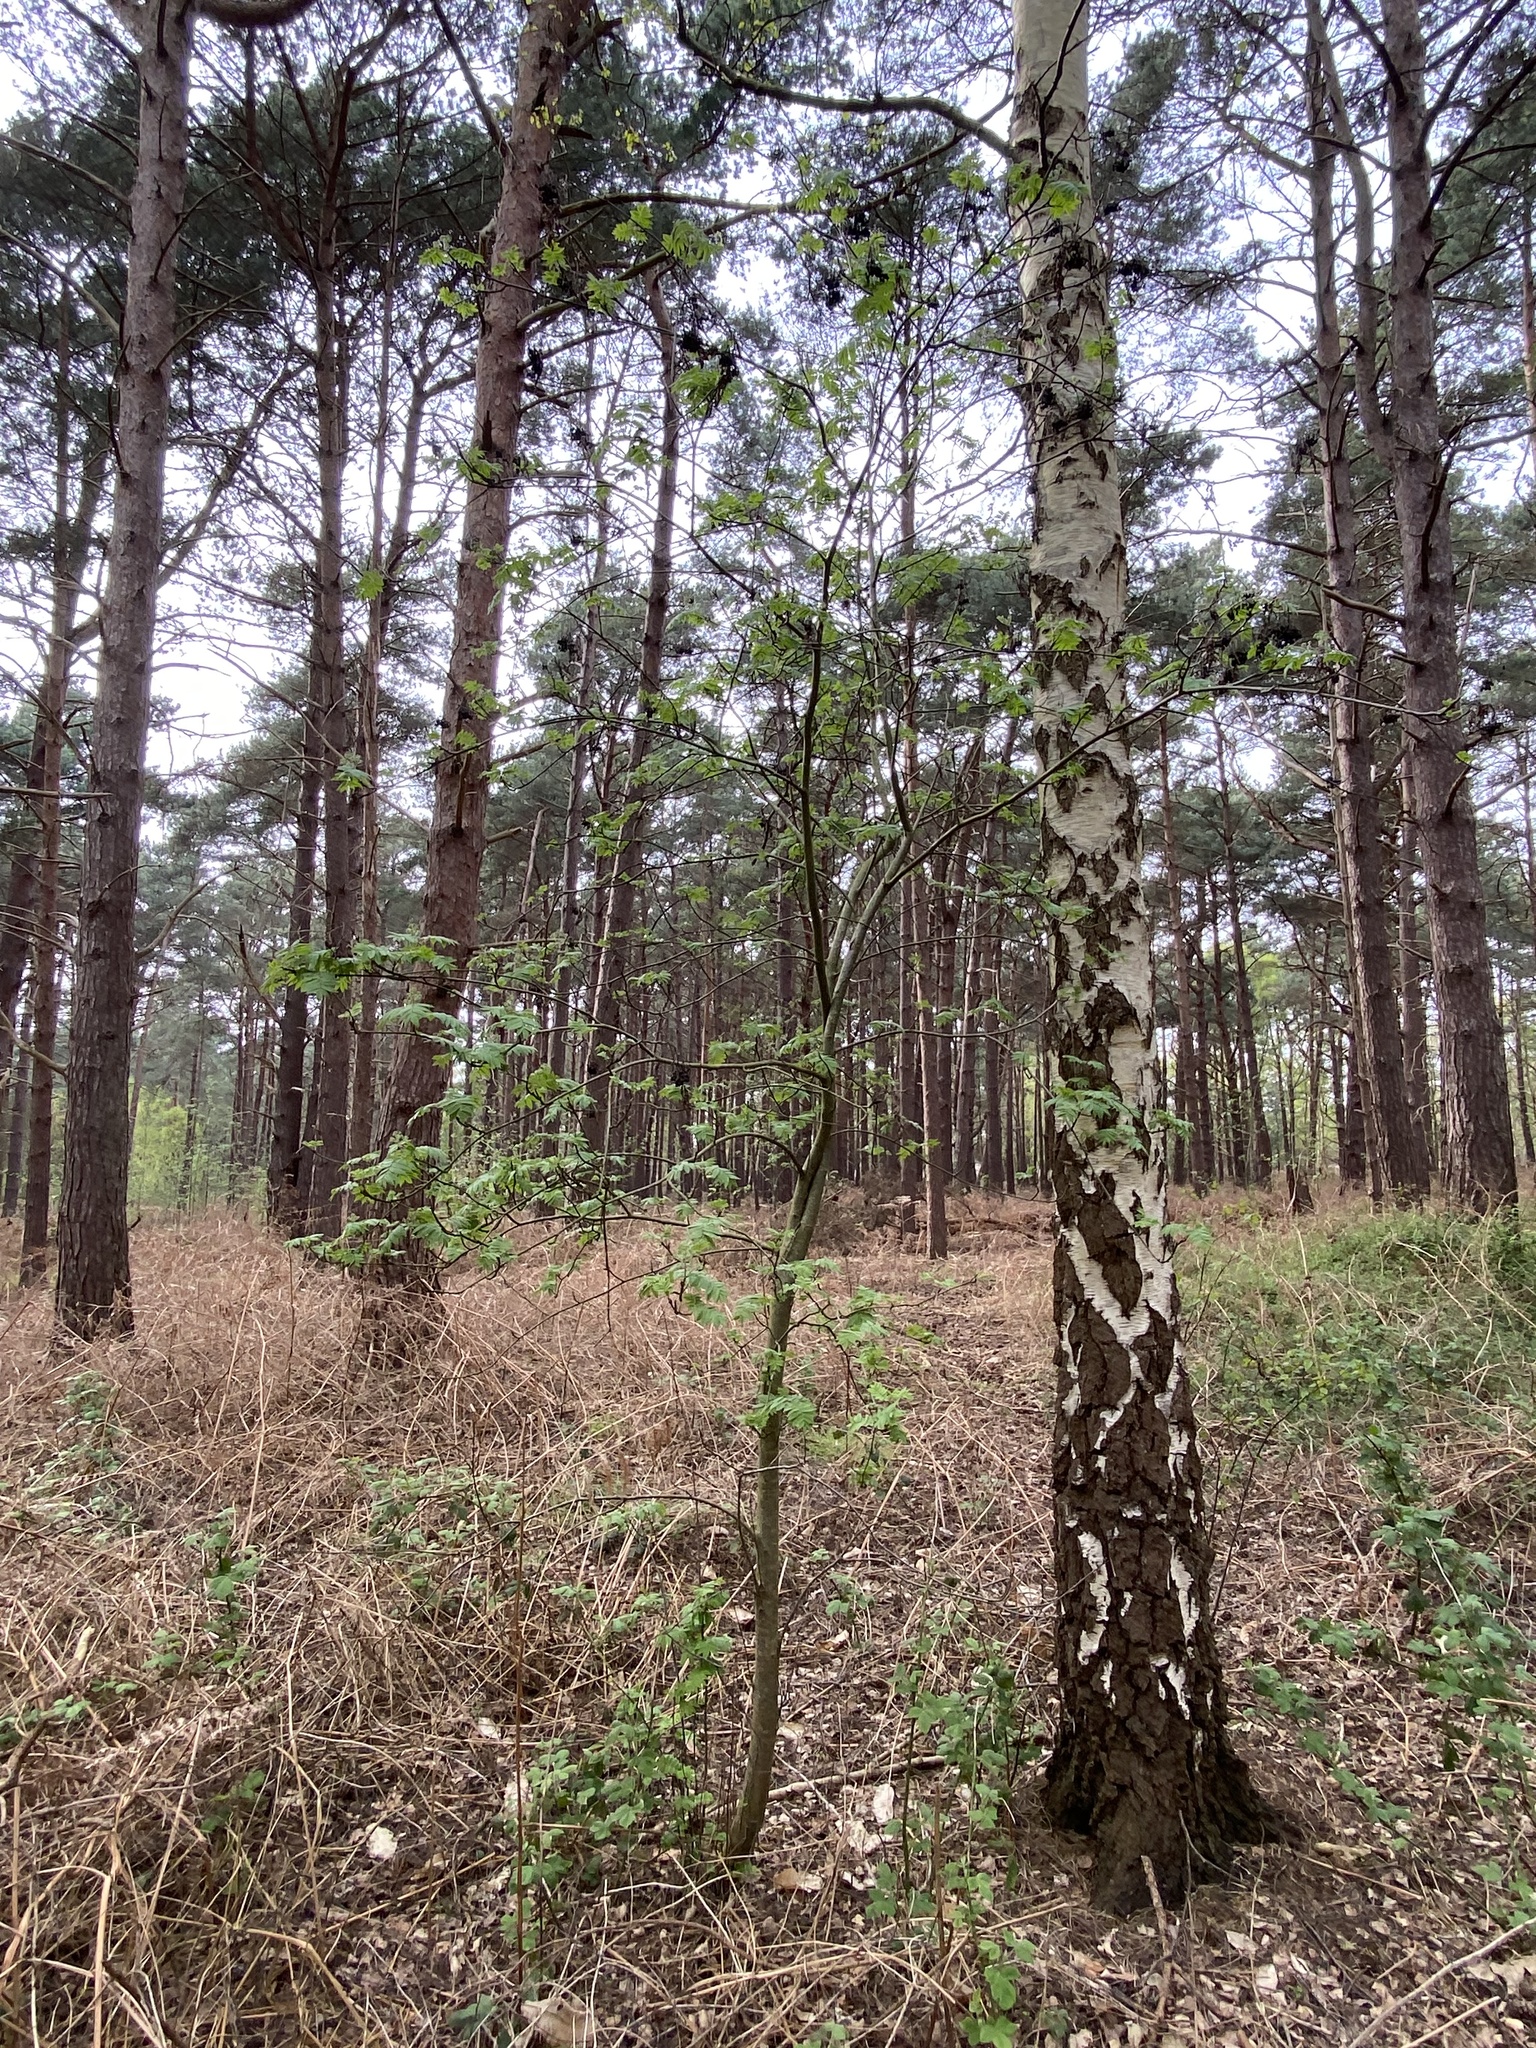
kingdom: Plantae
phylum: Tracheophyta
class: Magnoliopsida
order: Rosales
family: Rosaceae
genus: Sorbus
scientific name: Sorbus aucuparia
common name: Rowan
